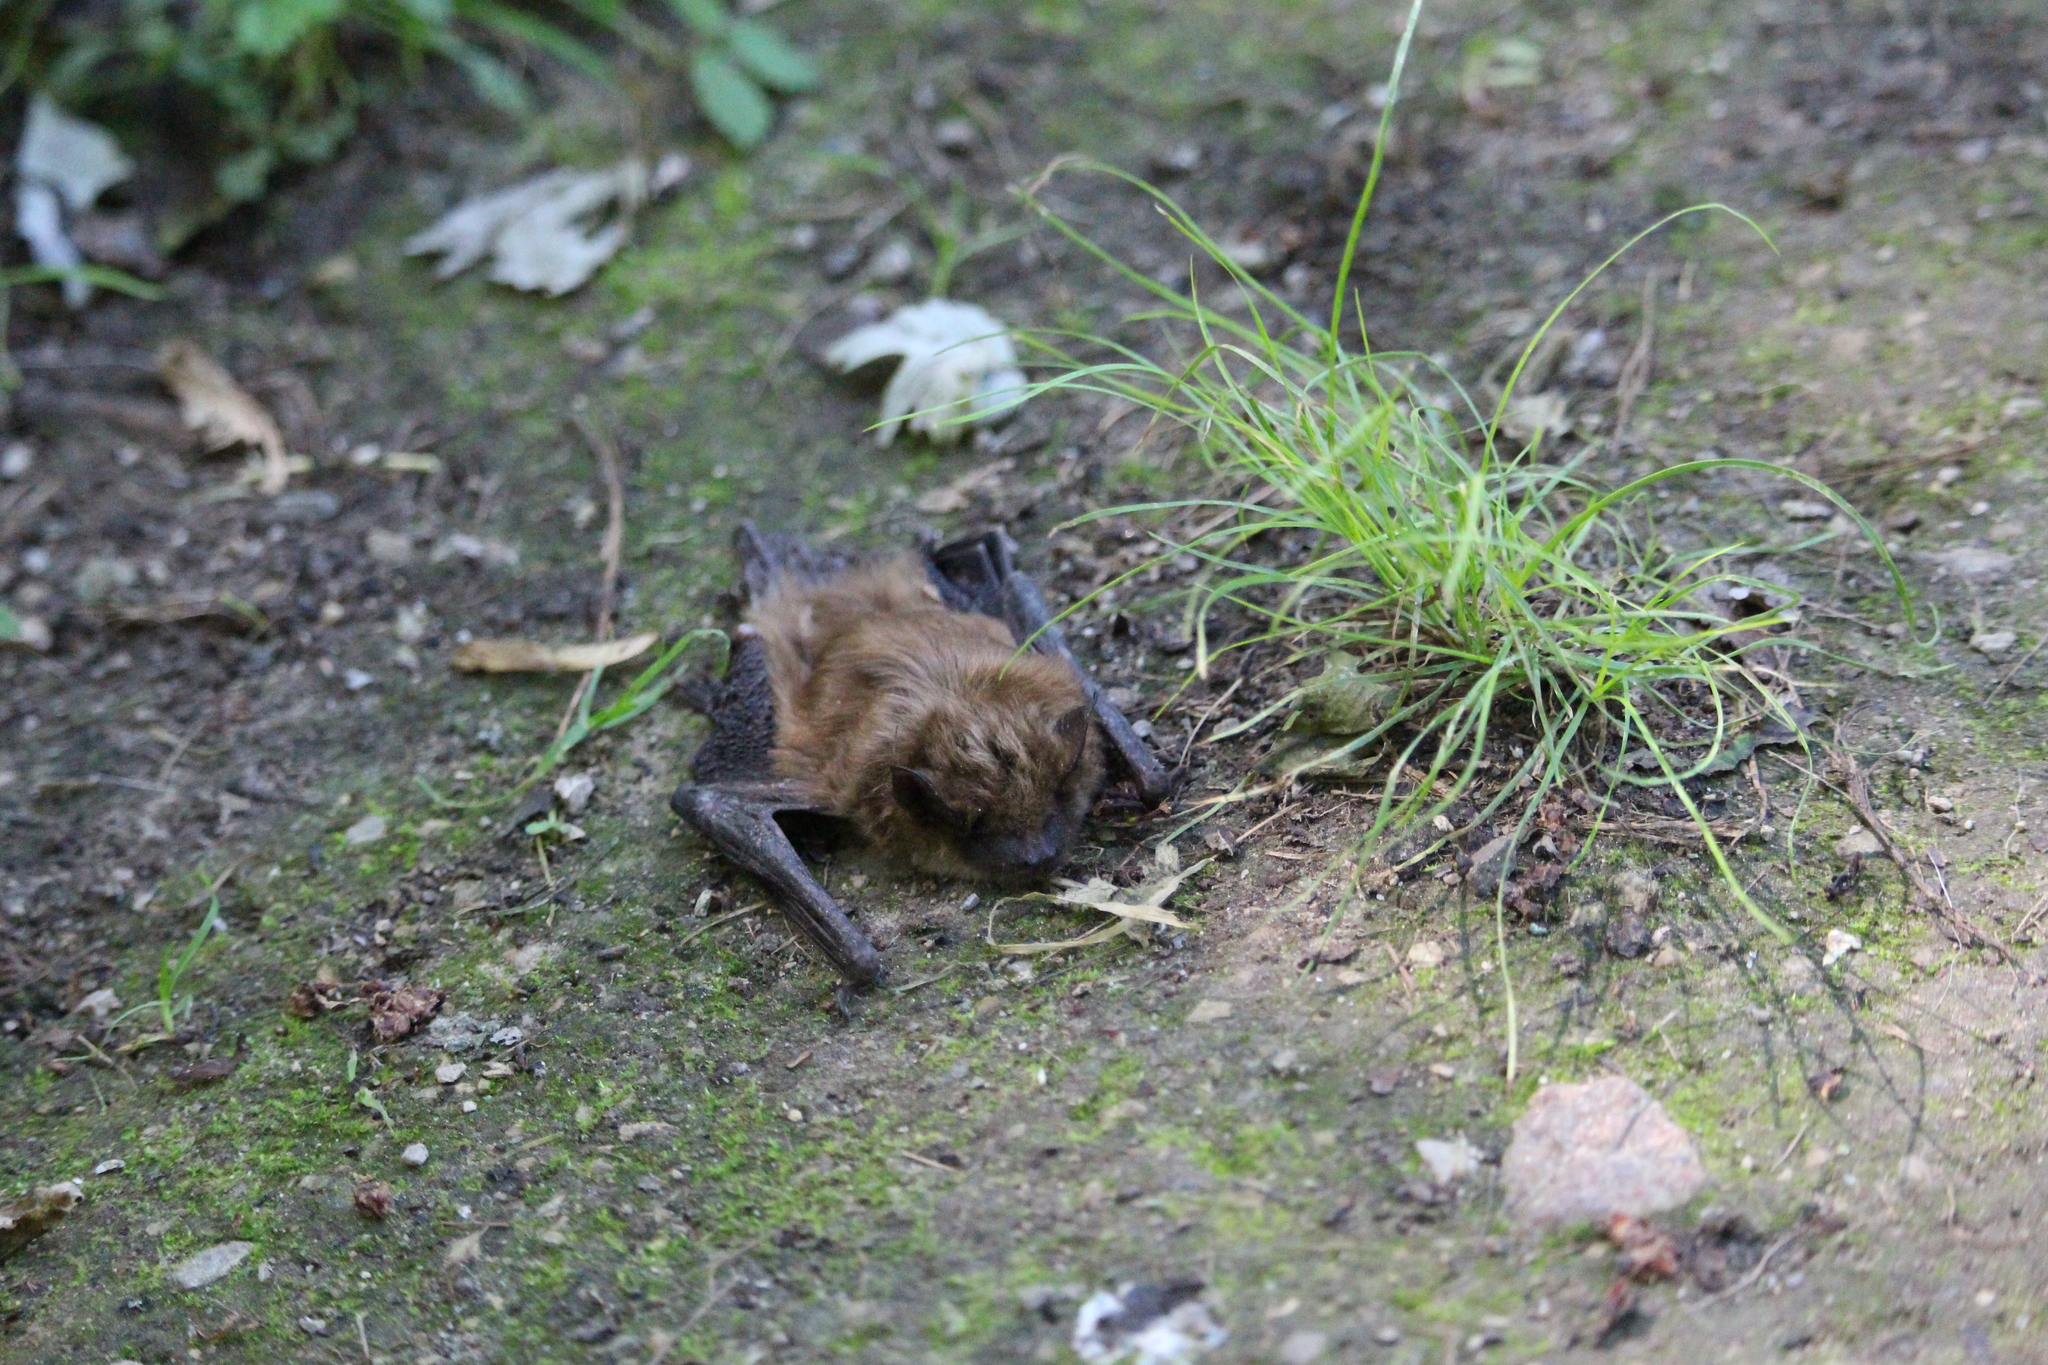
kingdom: Animalia
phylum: Chordata
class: Mammalia
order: Chiroptera
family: Vespertilionidae
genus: Eptesicus
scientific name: Eptesicus fuscus
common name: Big brown bat
